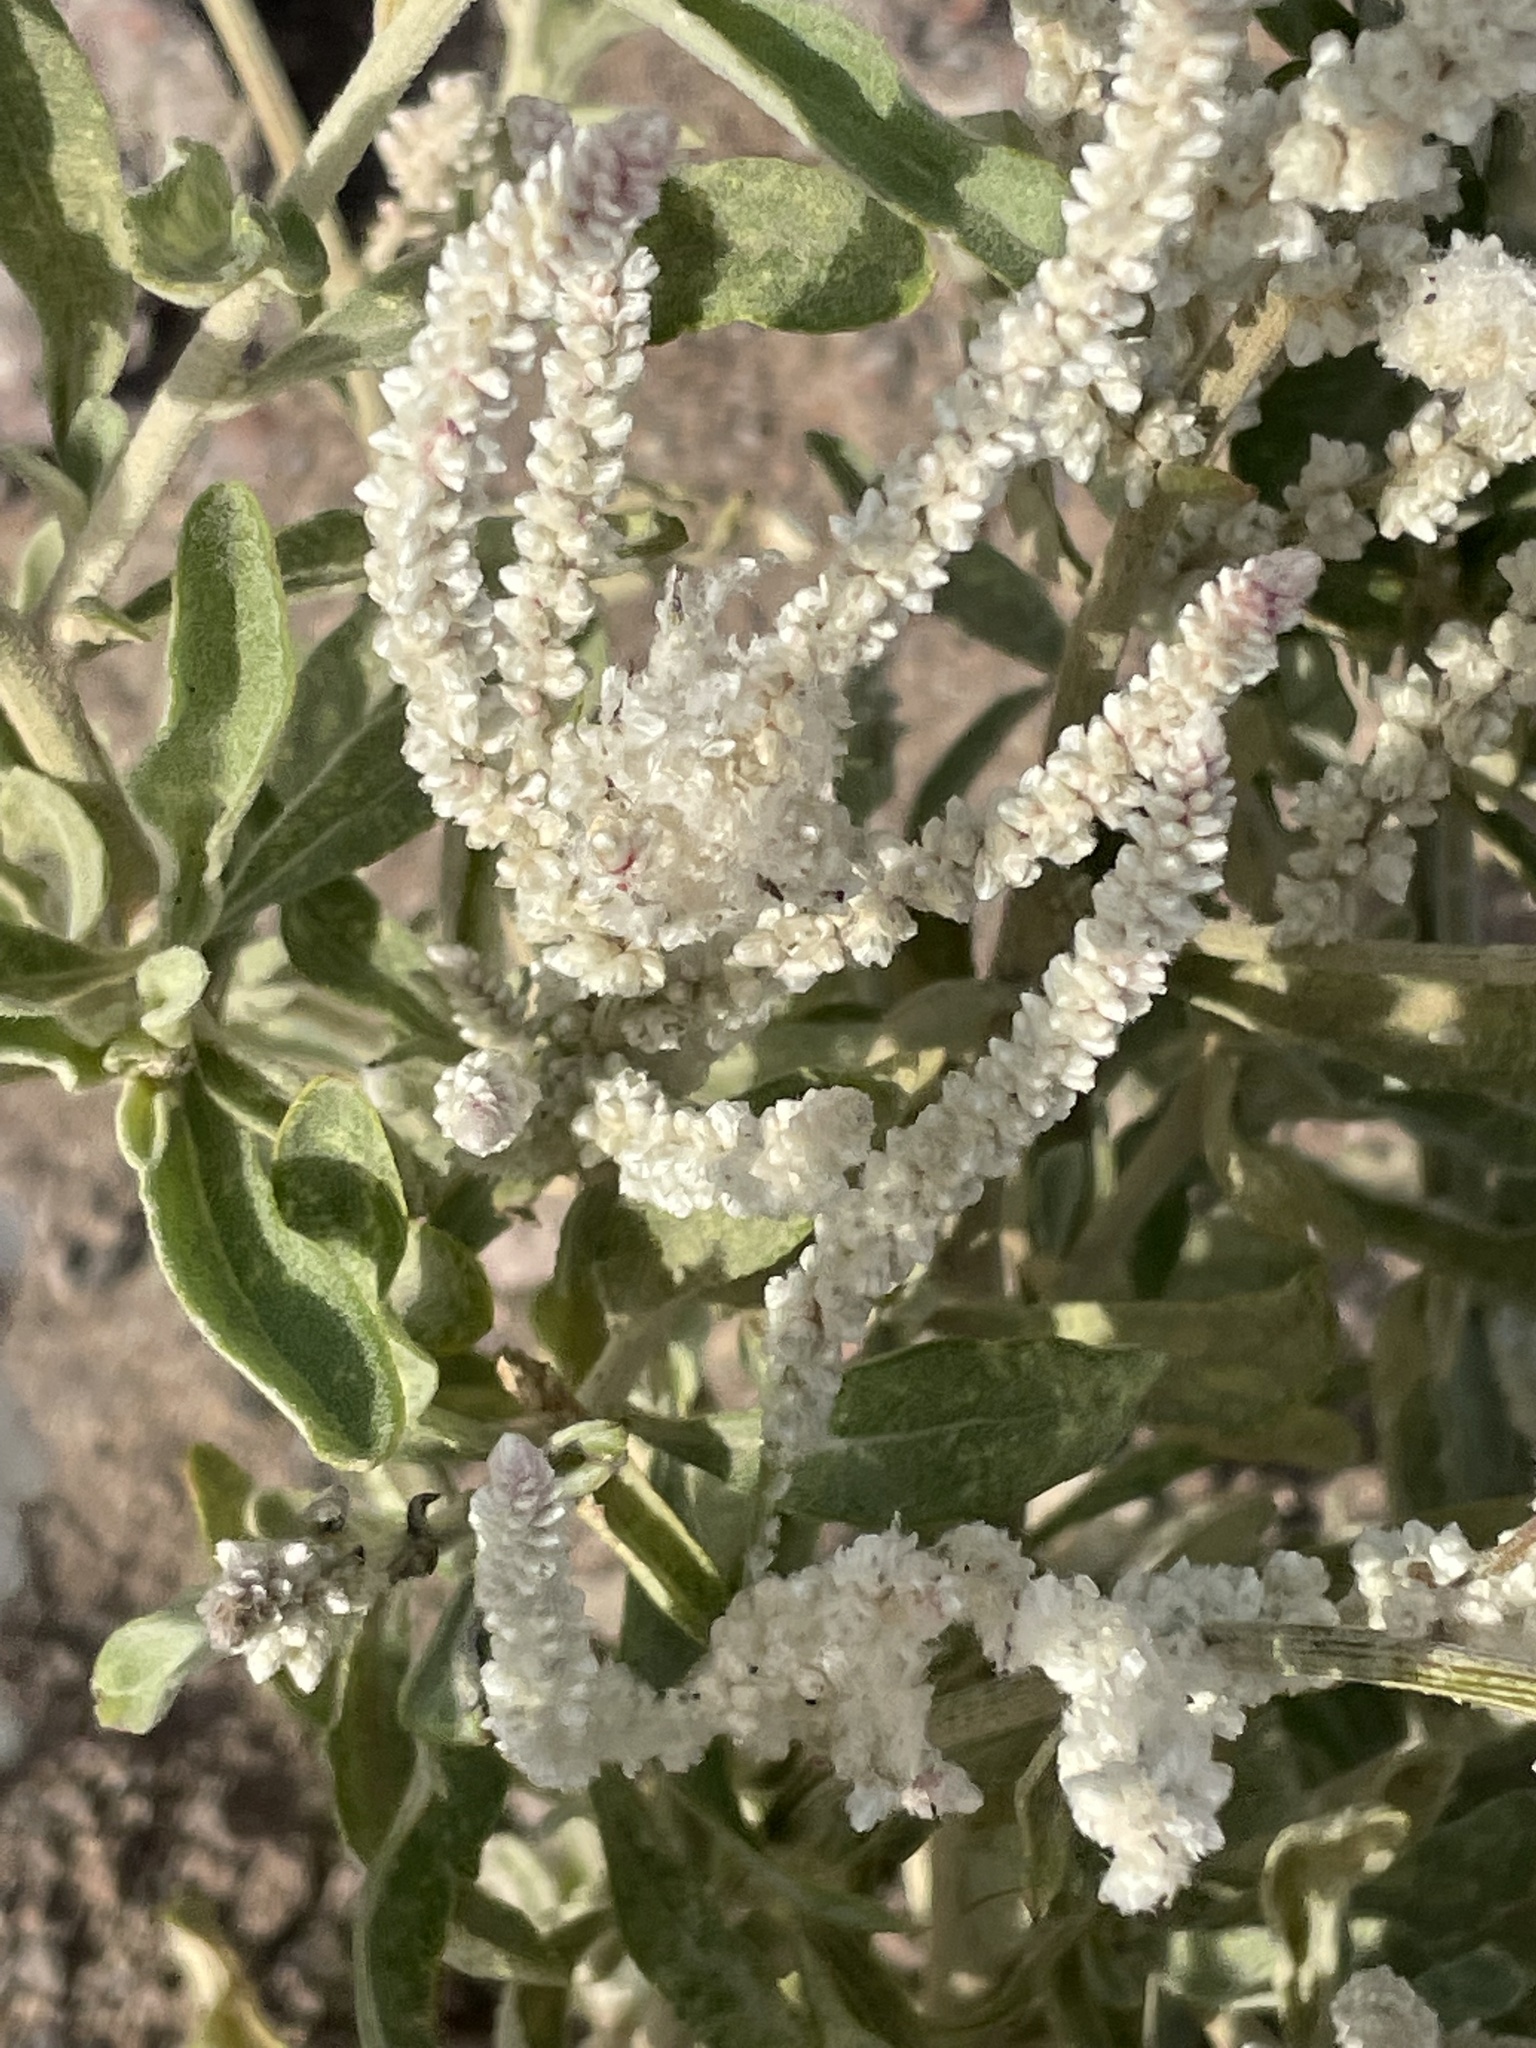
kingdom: Plantae
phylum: Tracheophyta
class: Magnoliopsida
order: Caryophyllales
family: Amaranthaceae
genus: Aerva
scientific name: Aerva javanica
